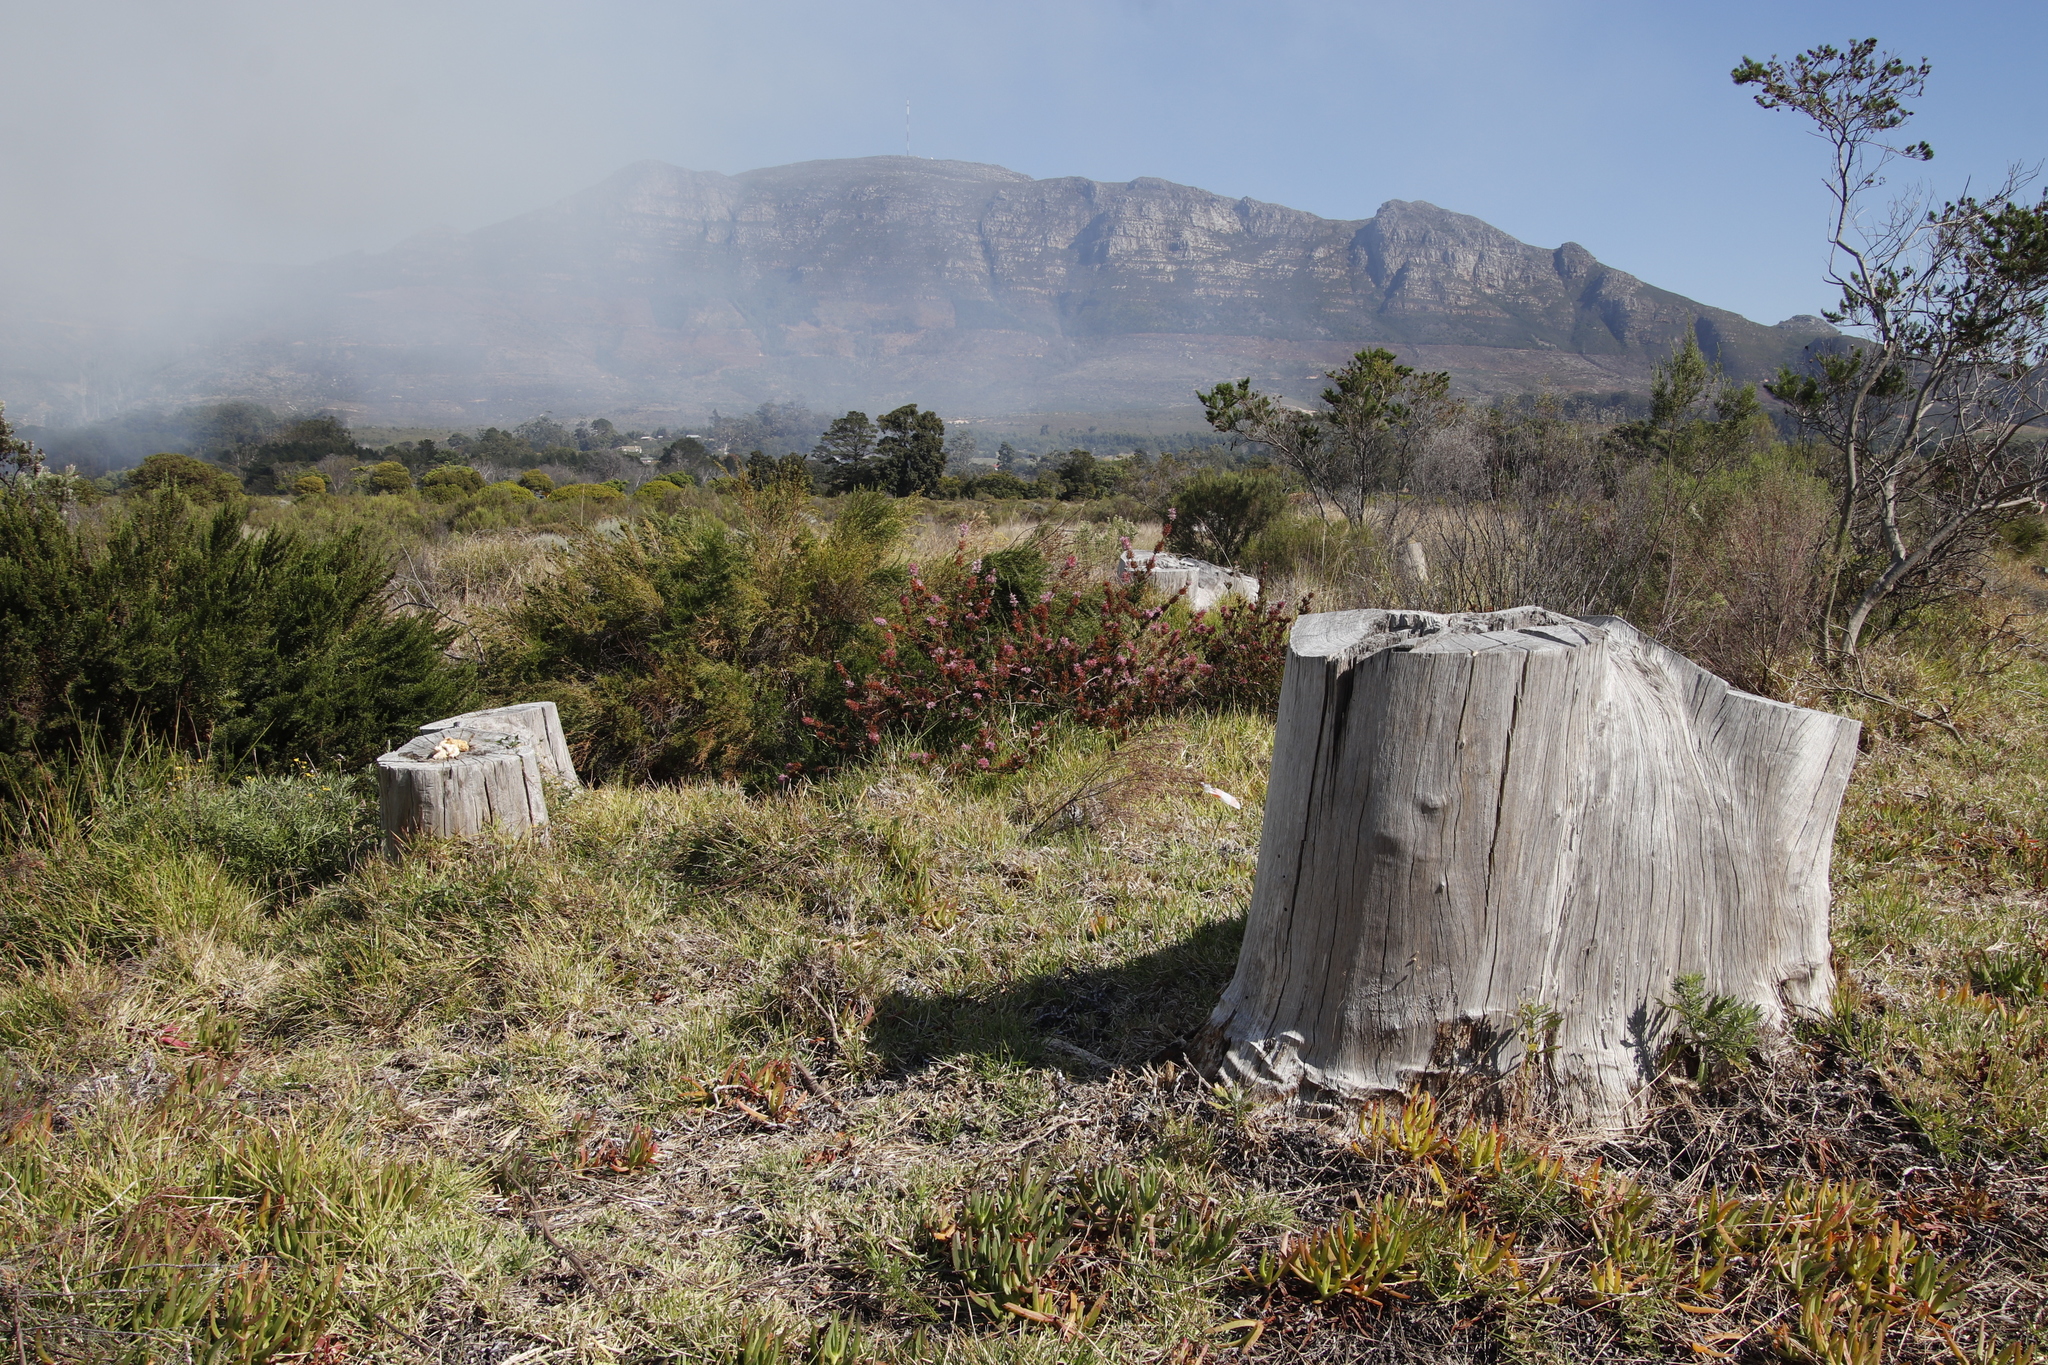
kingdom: Plantae
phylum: Tracheophyta
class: Magnoliopsida
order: Myrtales
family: Myrtaceae
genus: Eucalyptus
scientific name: Eucalyptus botryoides
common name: Bangalay
